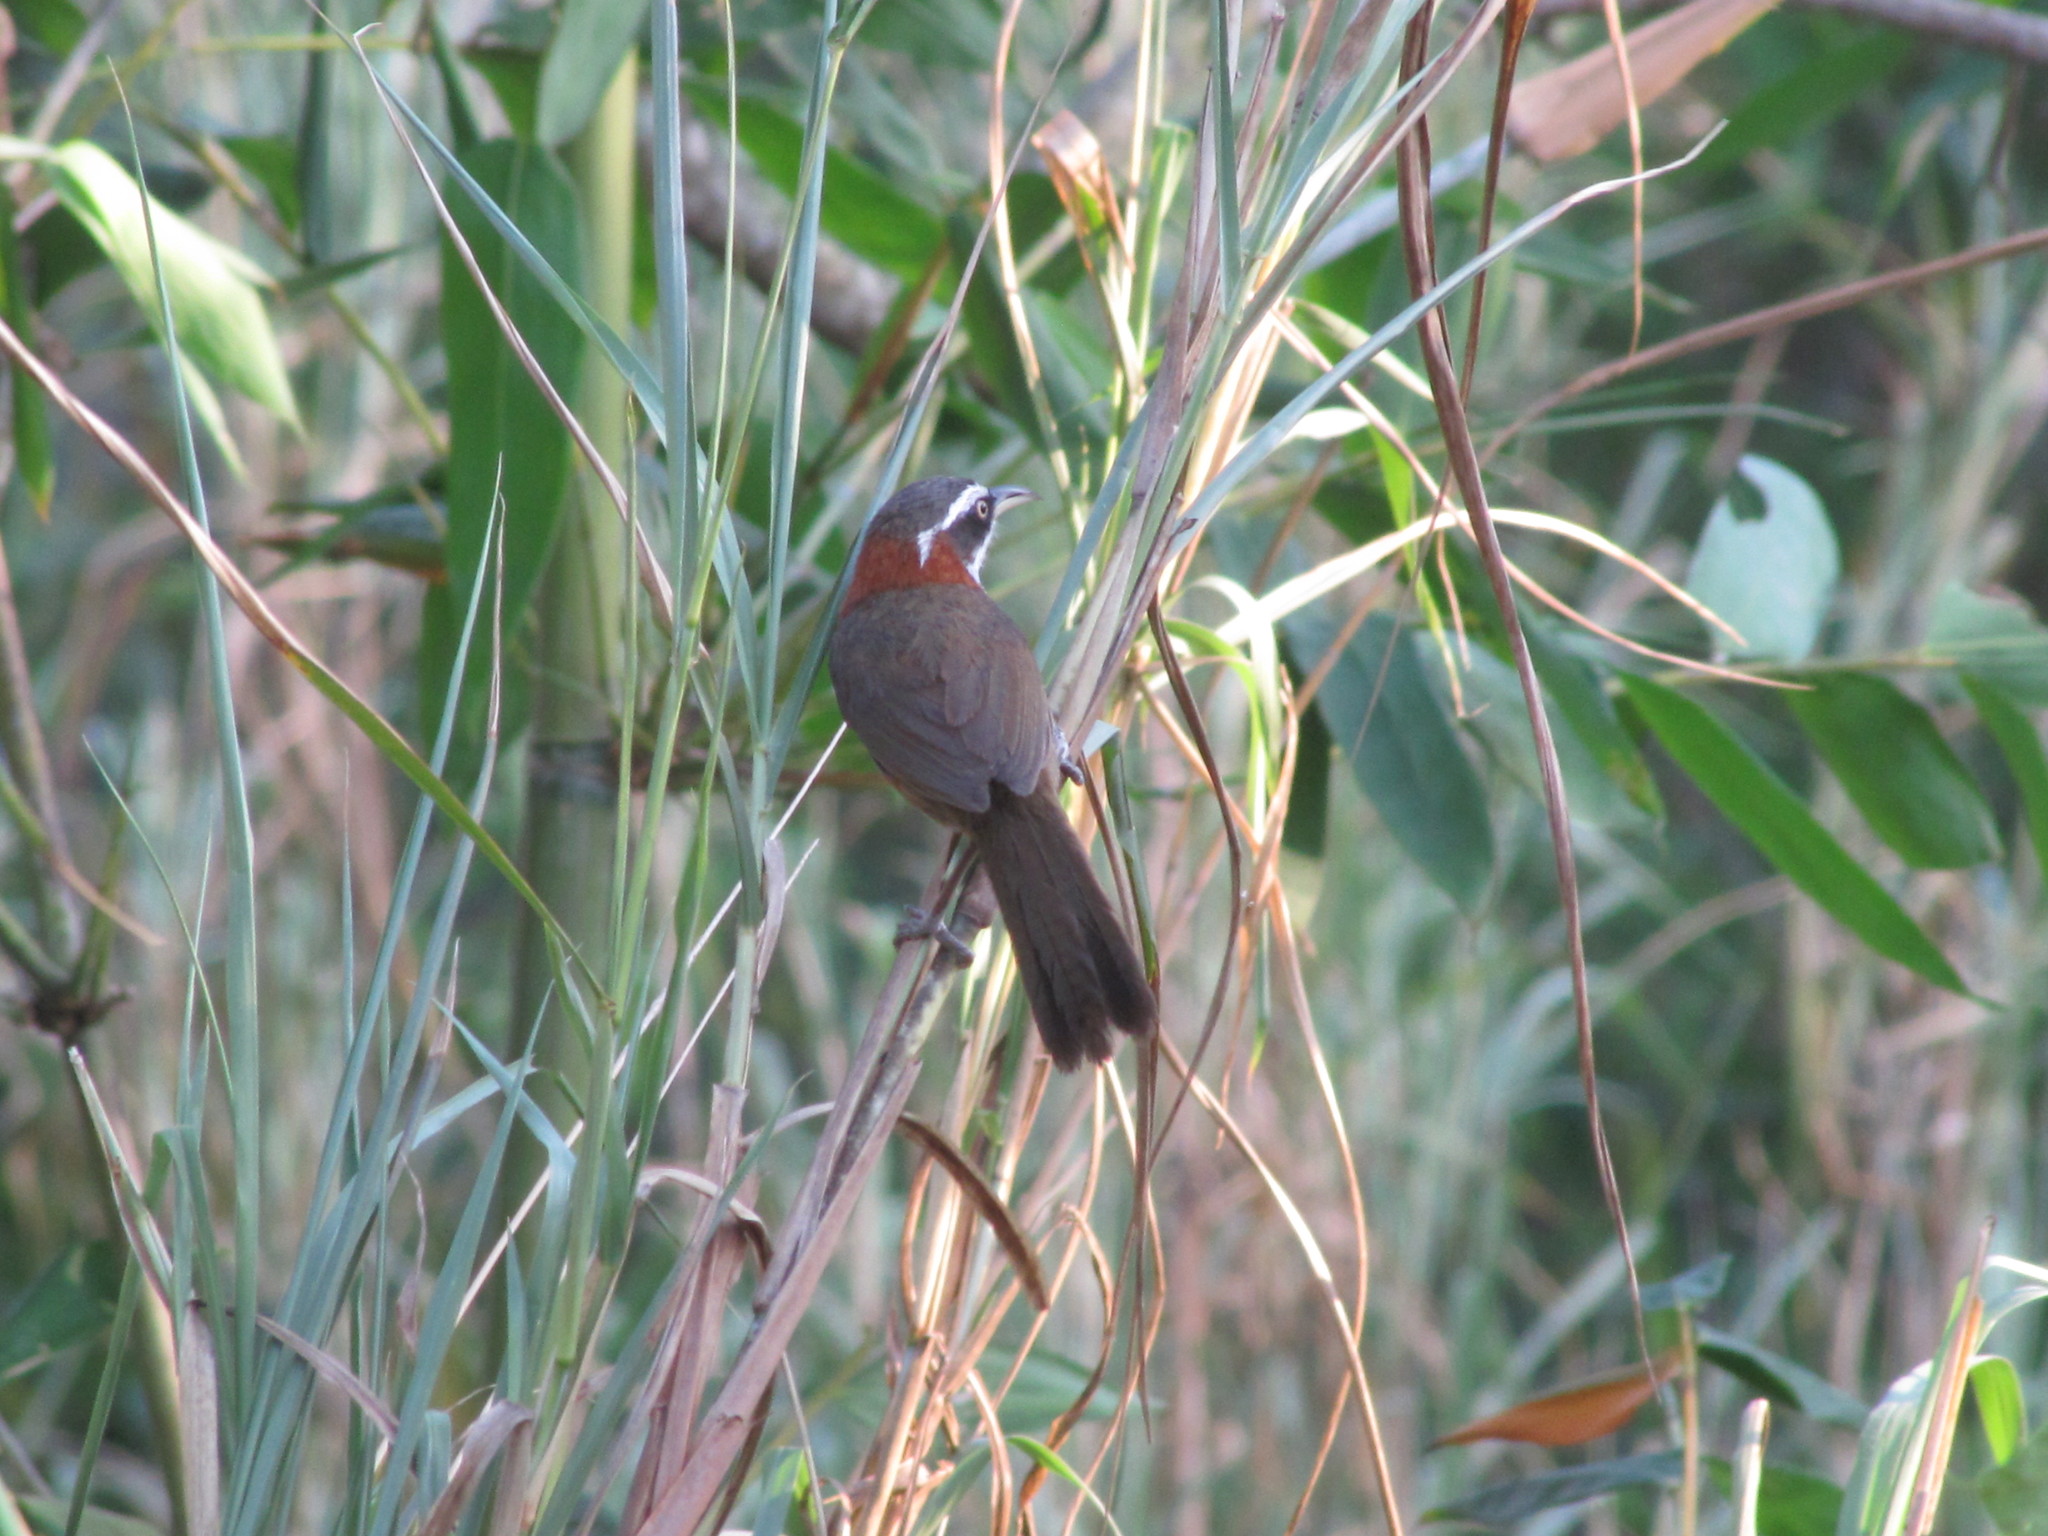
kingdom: Animalia
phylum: Chordata
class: Aves
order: Passeriformes
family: Timaliidae
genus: Pomatorhinus
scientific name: Pomatorhinus musicus
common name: Taiwan scimitar-babbler
